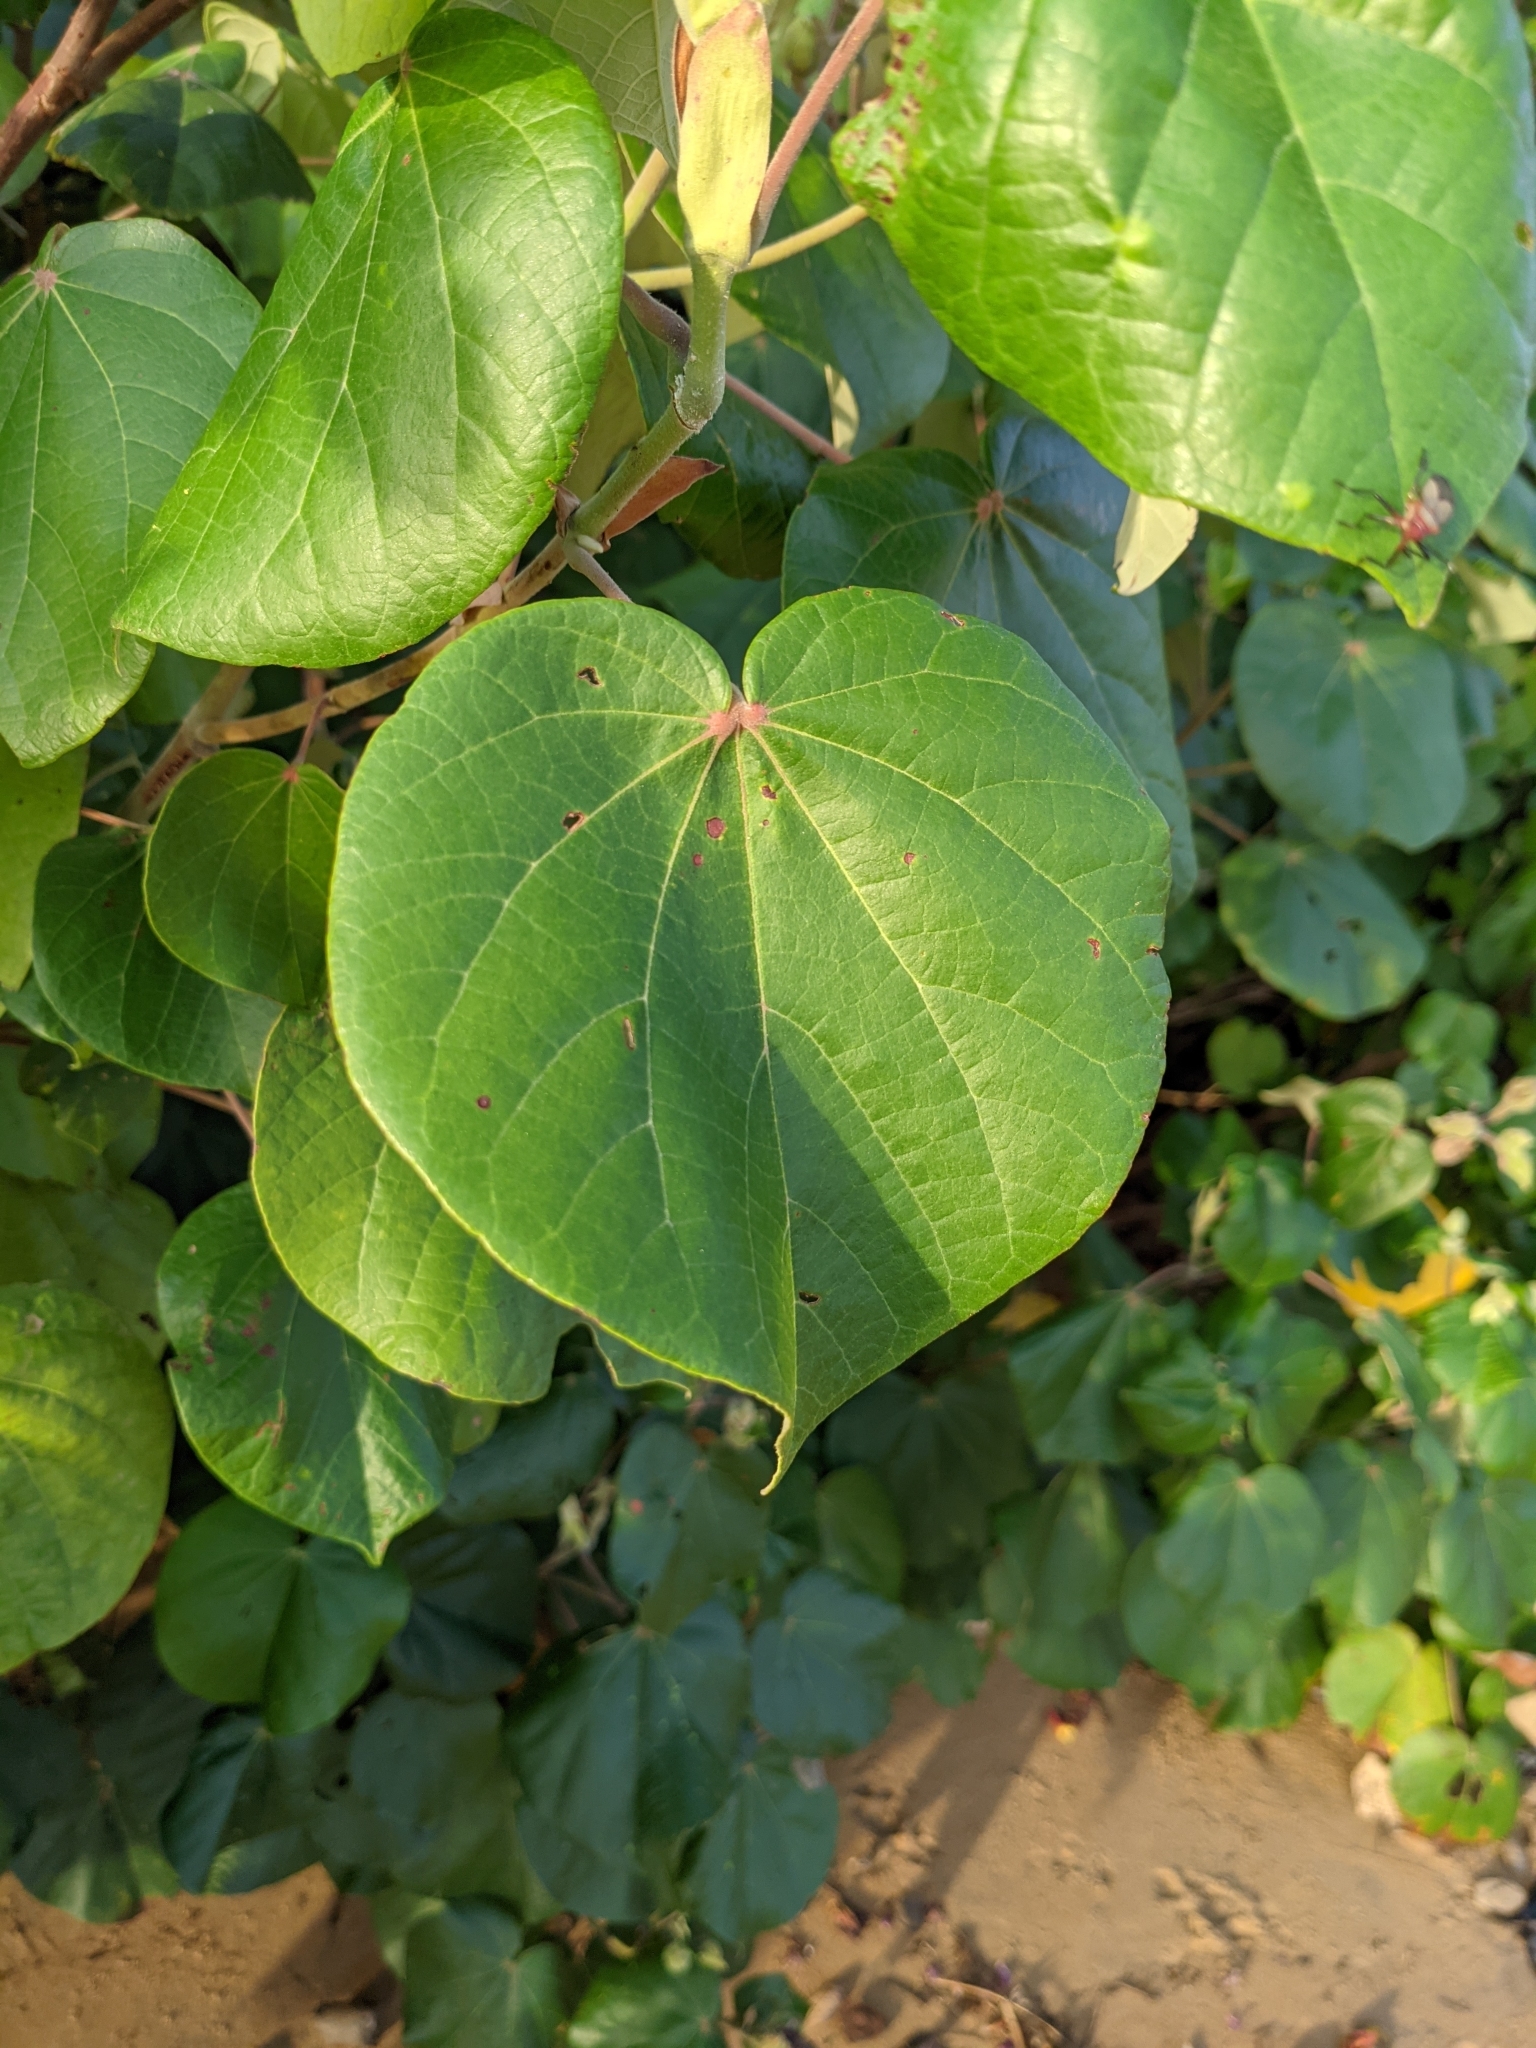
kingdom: Plantae
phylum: Tracheophyta
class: Magnoliopsida
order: Malvales
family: Malvaceae
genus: Talipariti
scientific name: Talipariti tiliaceum
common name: Sea hibiscus
